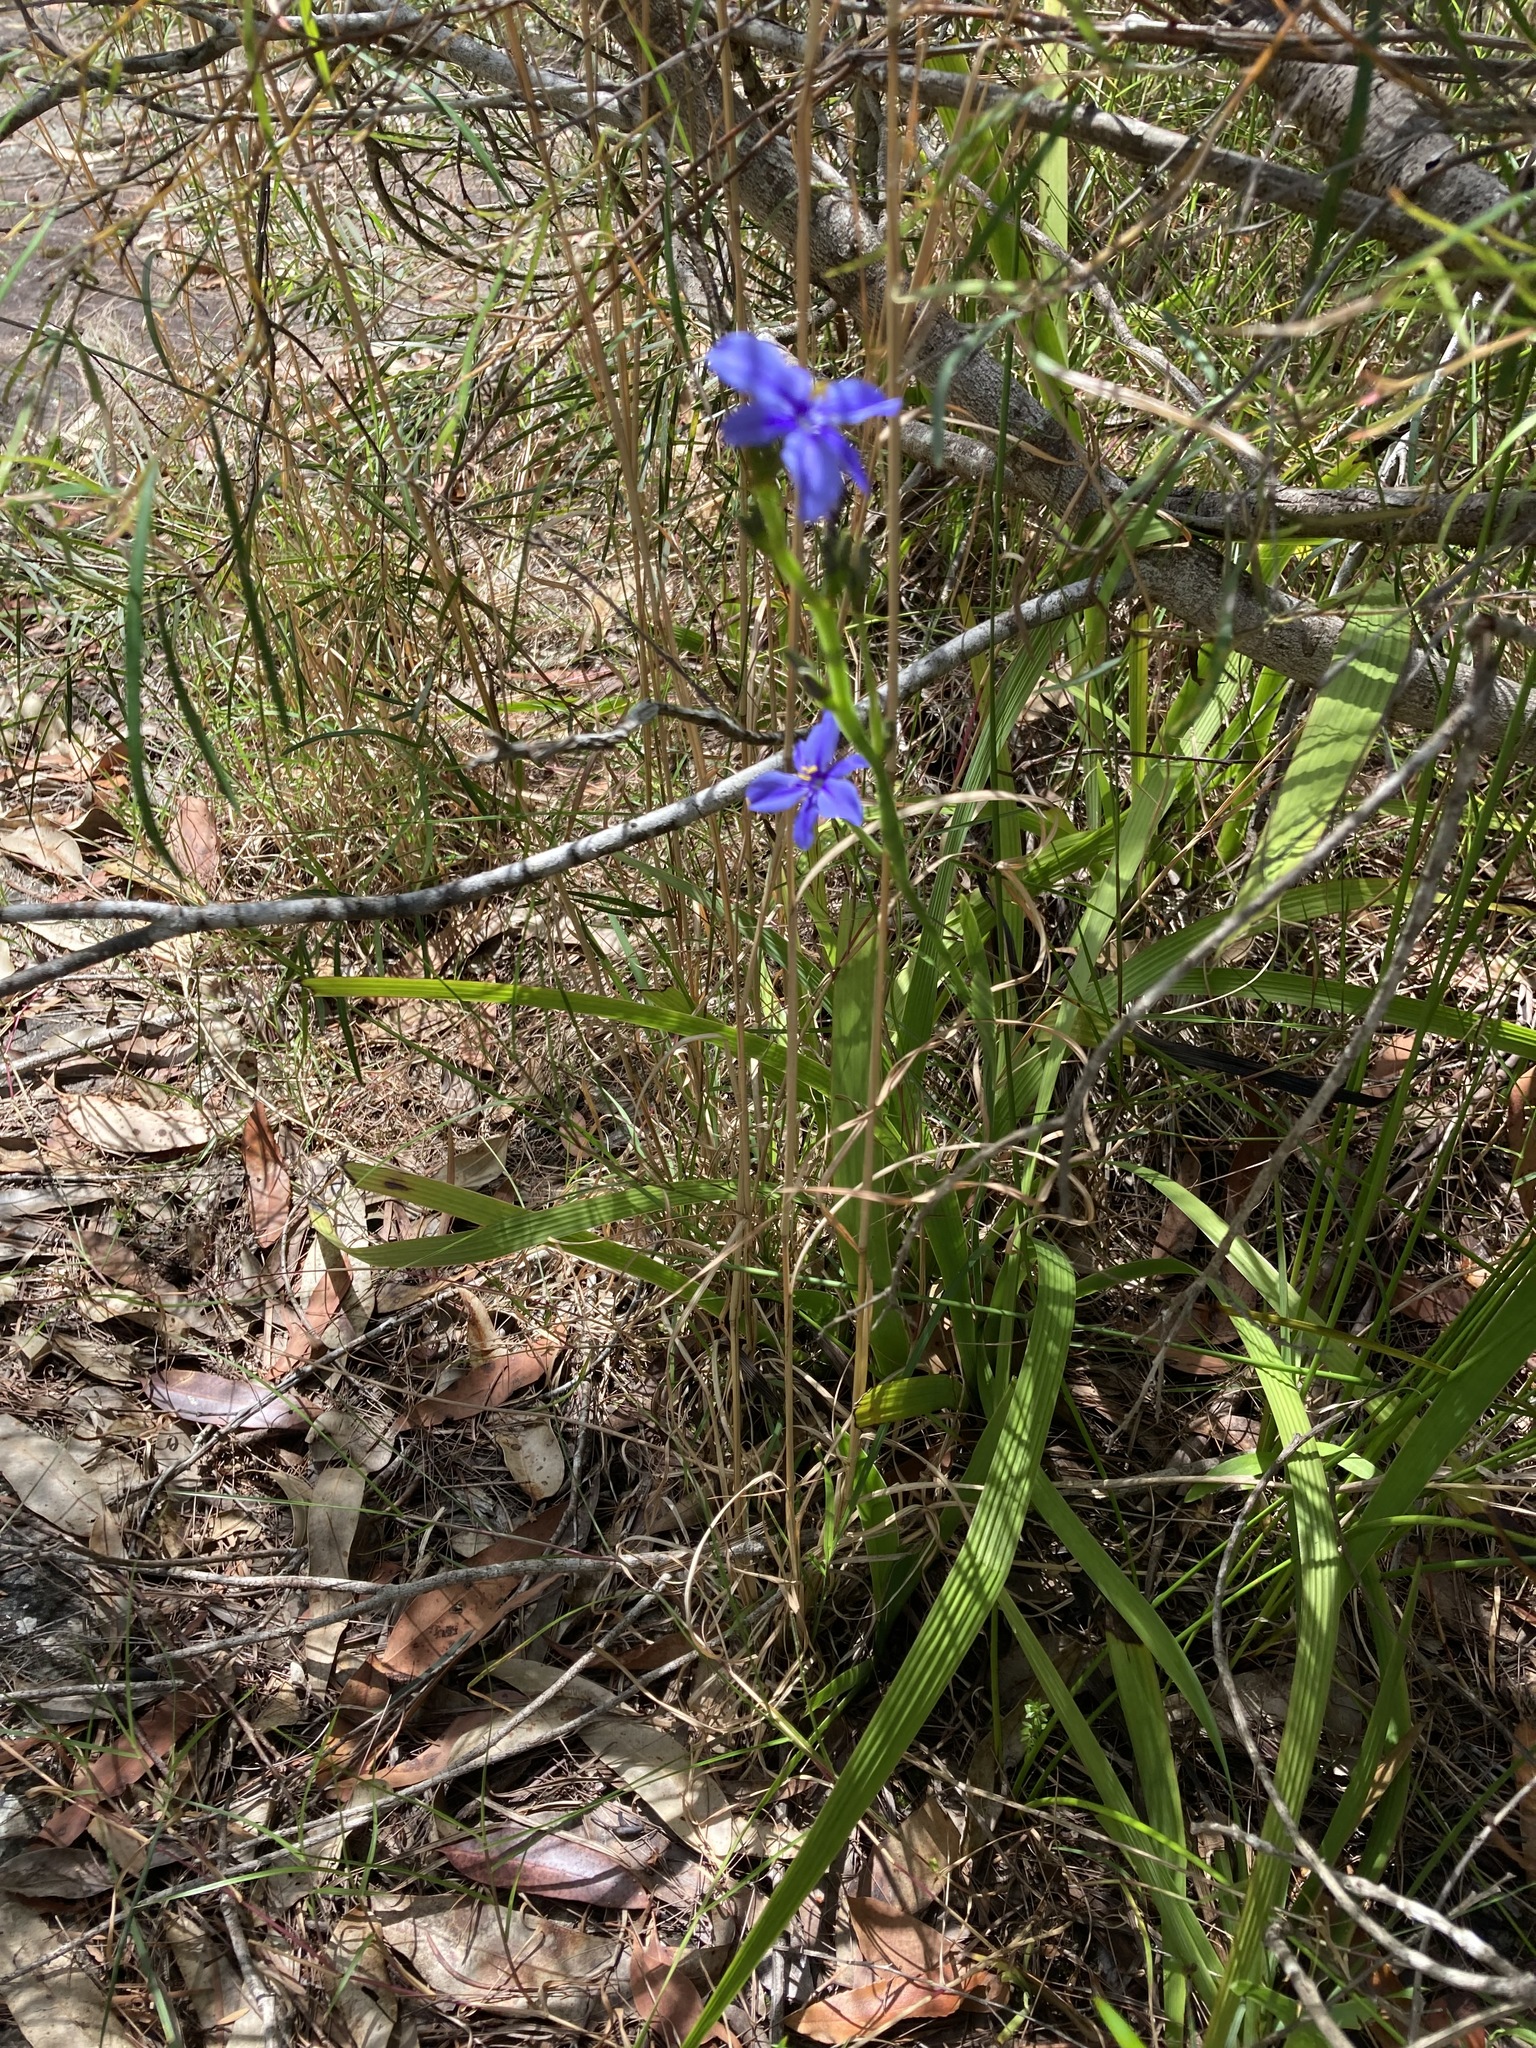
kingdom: Plantae
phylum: Tracheophyta
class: Liliopsida
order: Asparagales
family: Iridaceae
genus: Aristea
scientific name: Aristea ecklonii
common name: Blue corn-lily
